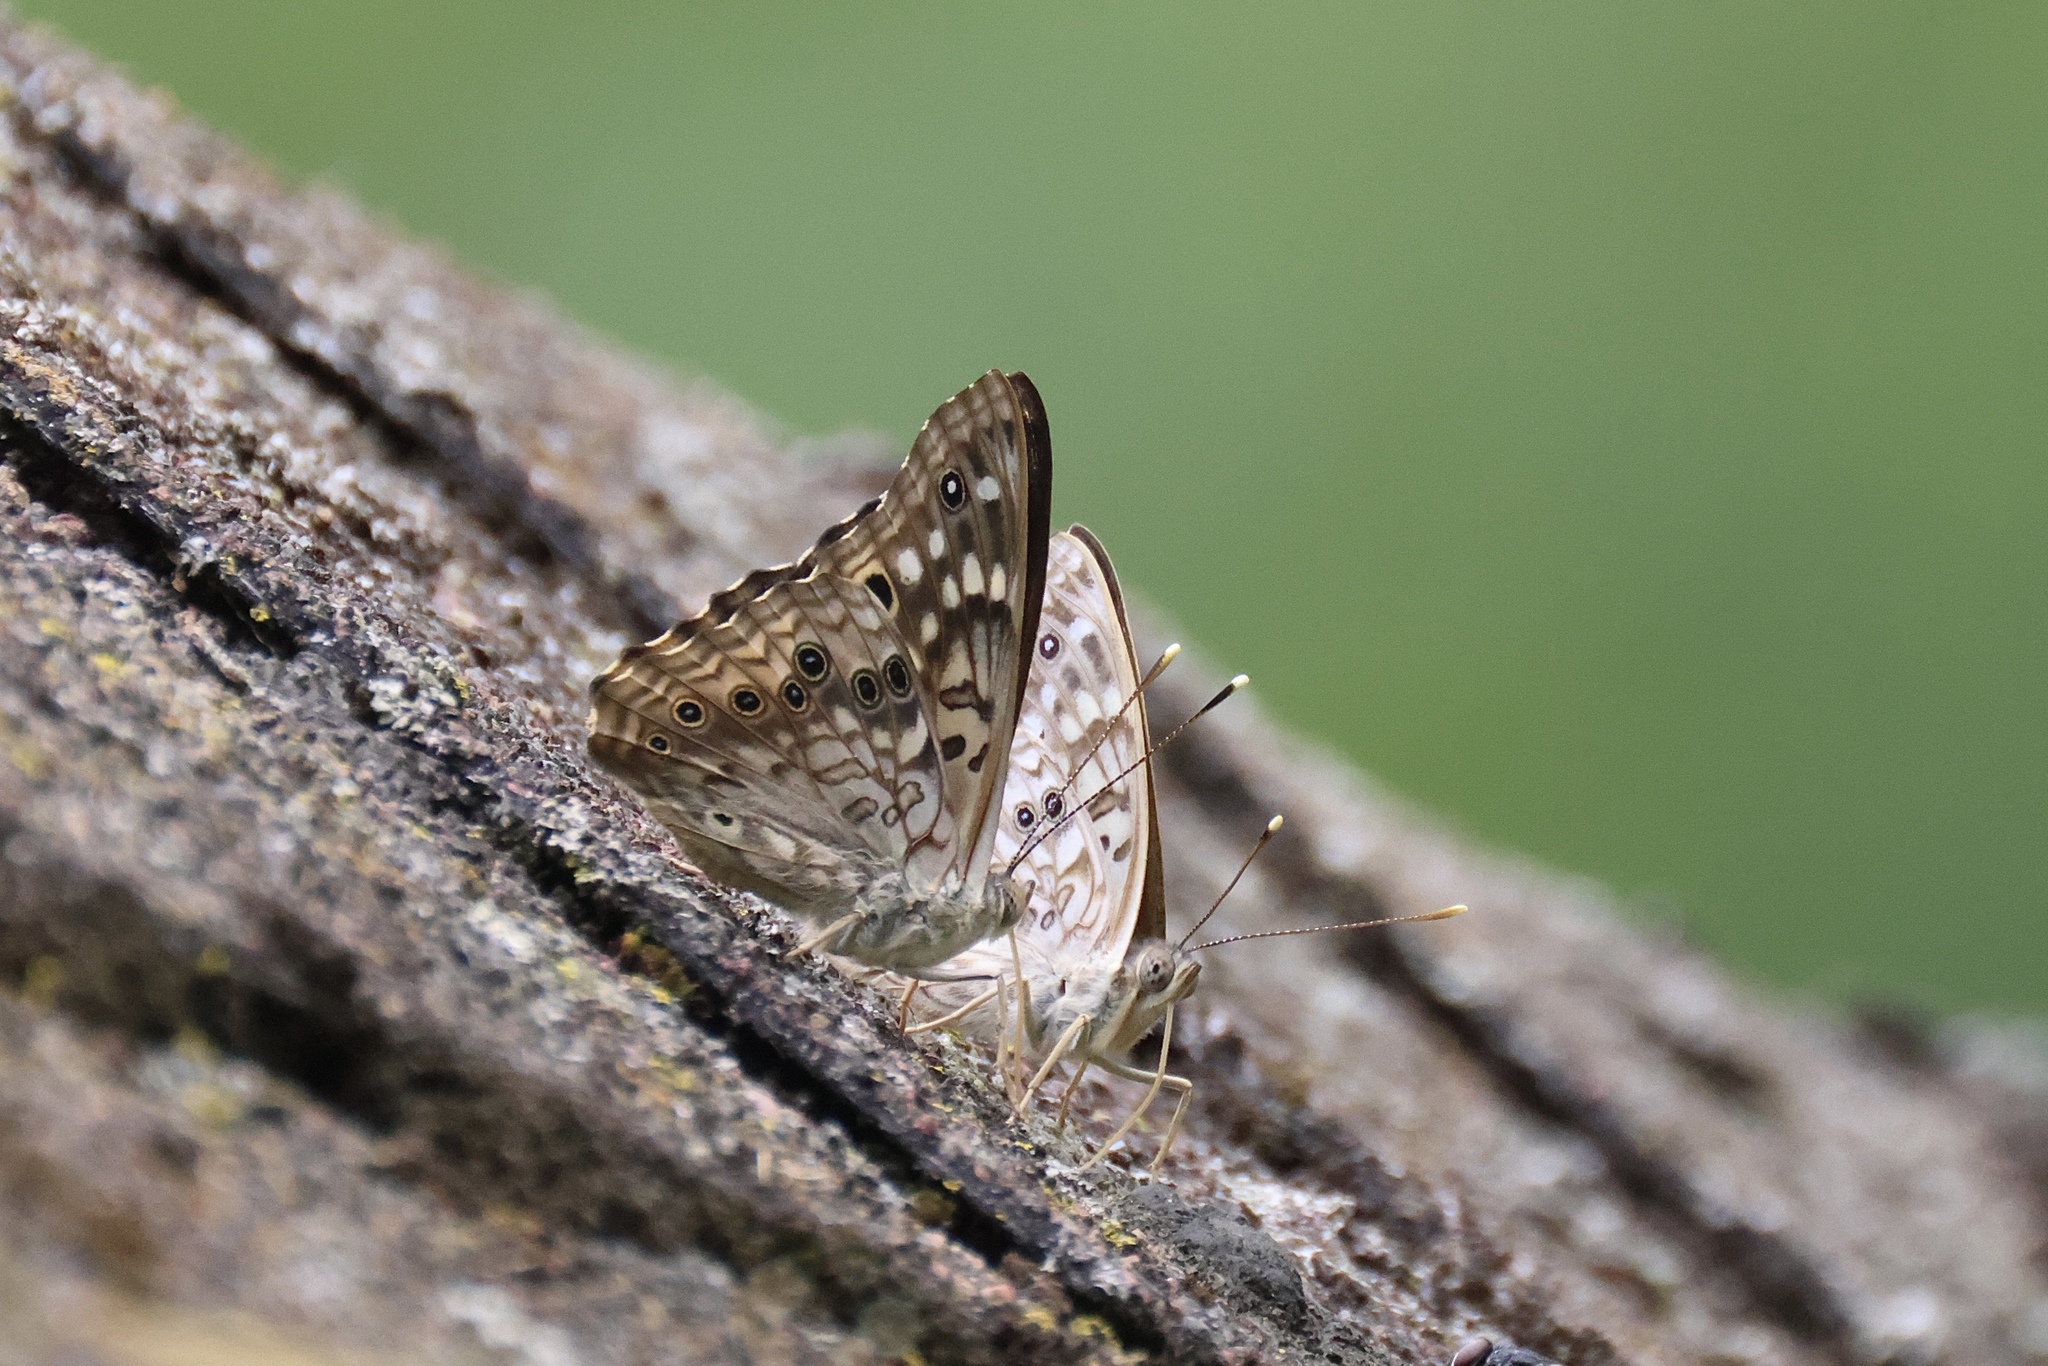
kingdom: Animalia
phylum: Arthropoda
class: Insecta
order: Lepidoptera
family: Nymphalidae
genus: Asterocampa
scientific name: Asterocampa celtis
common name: Hackberry emperor
